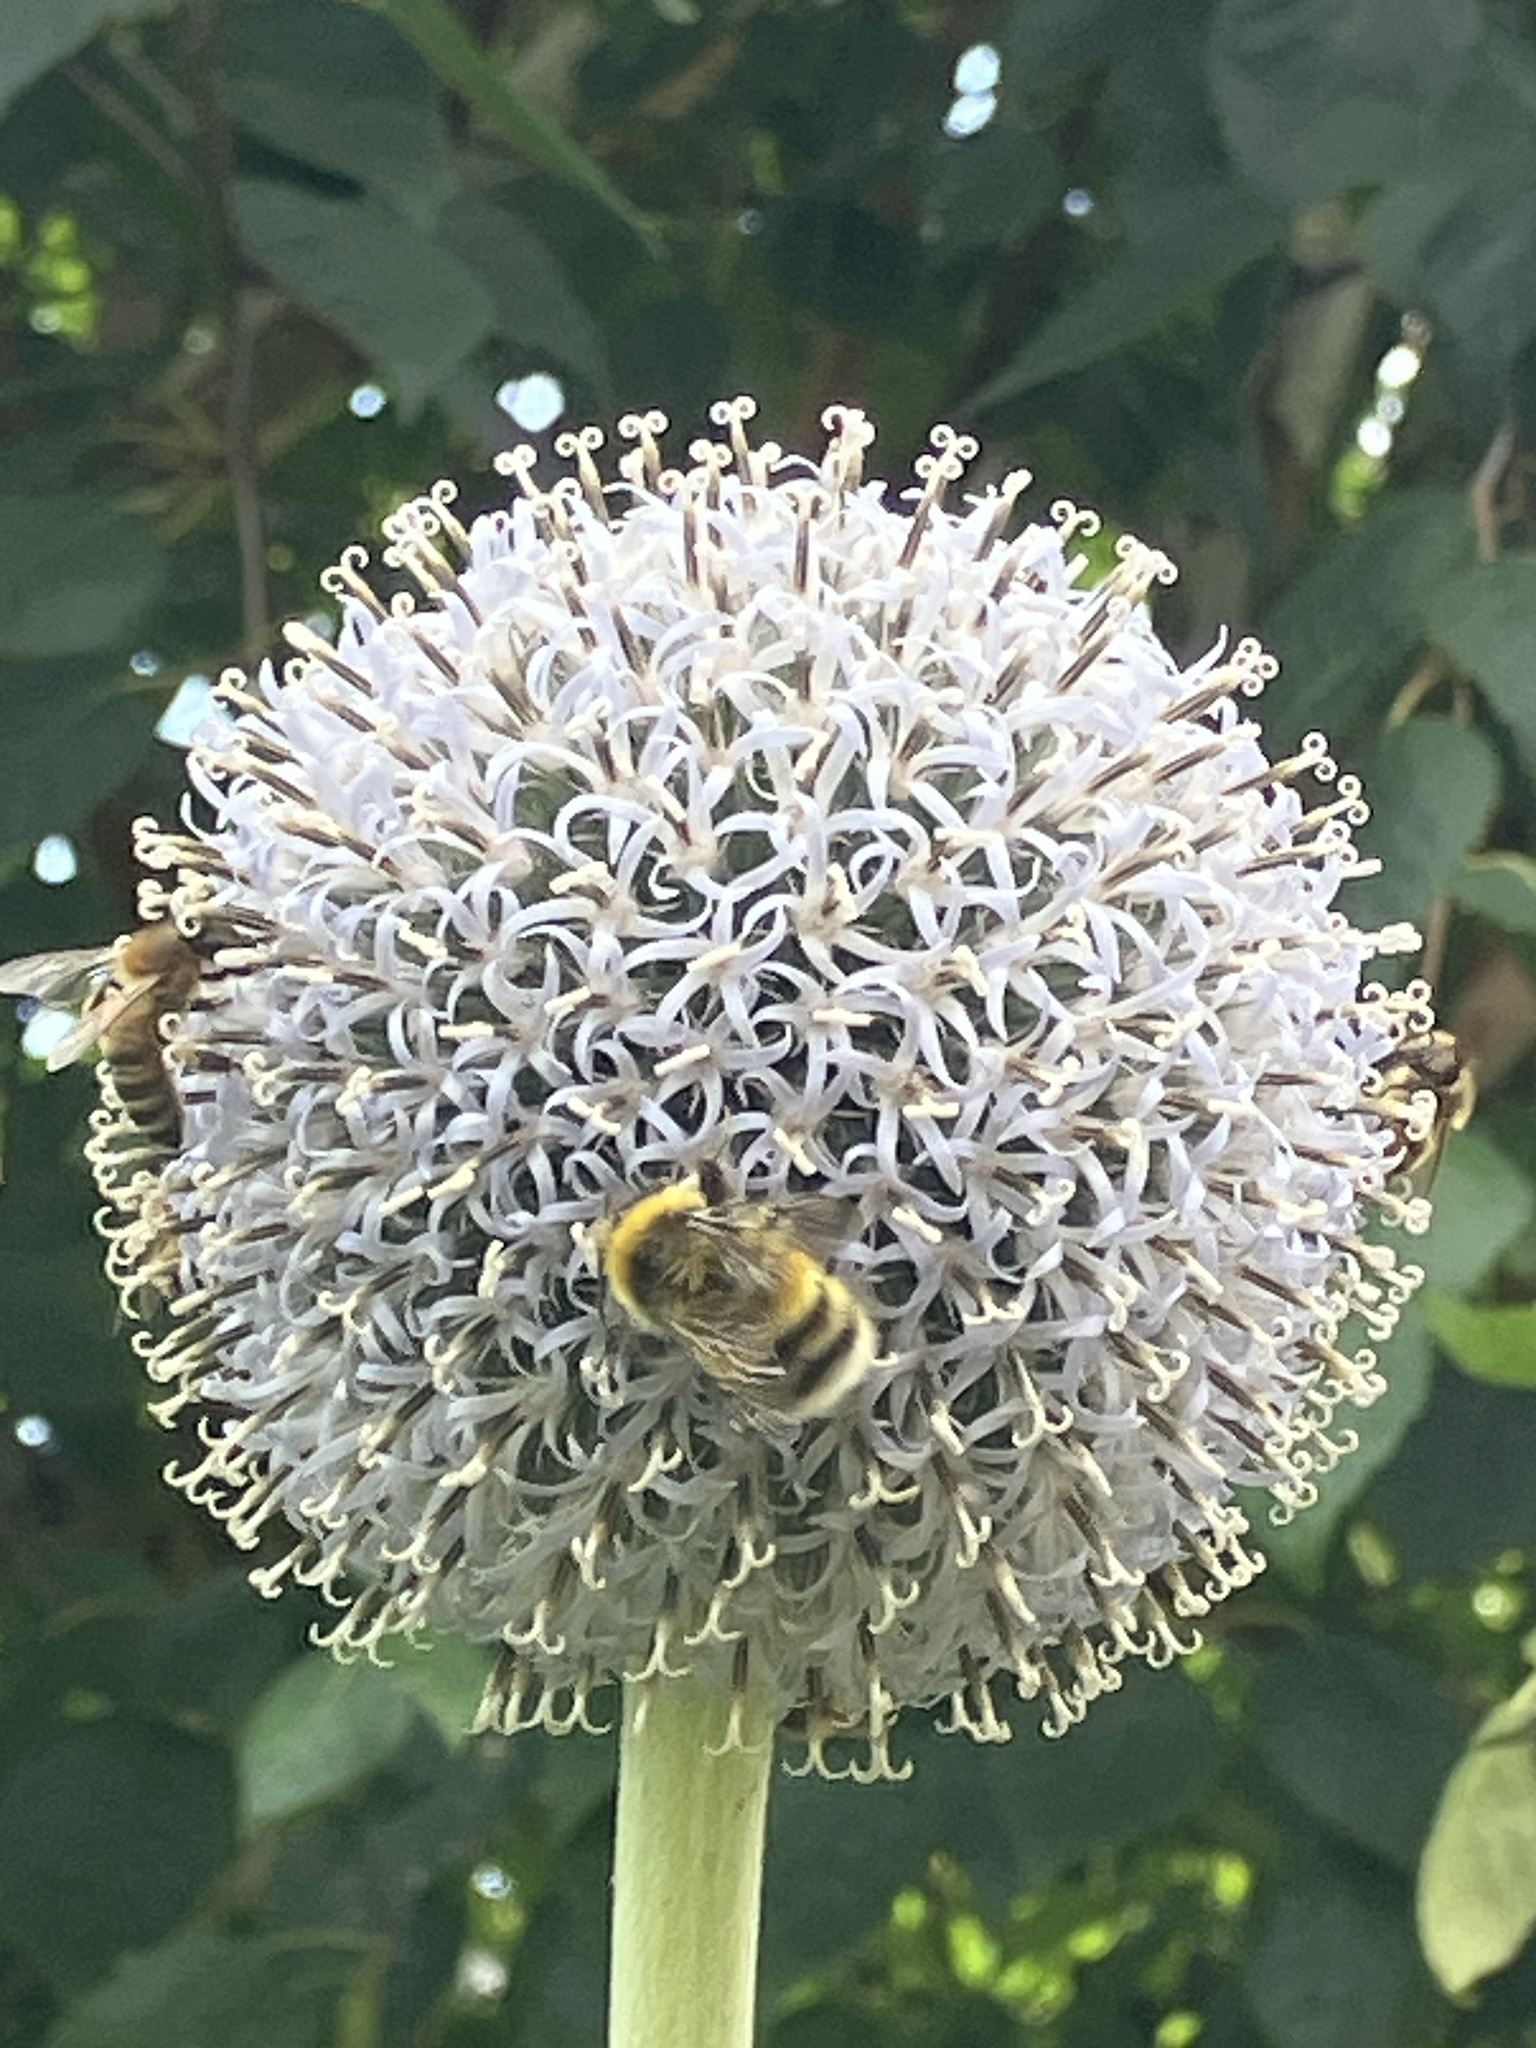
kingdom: Animalia
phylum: Arthropoda
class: Insecta
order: Hymenoptera
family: Apidae
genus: Bombus
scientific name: Bombus lucorum
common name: White-tailed bumblebee
